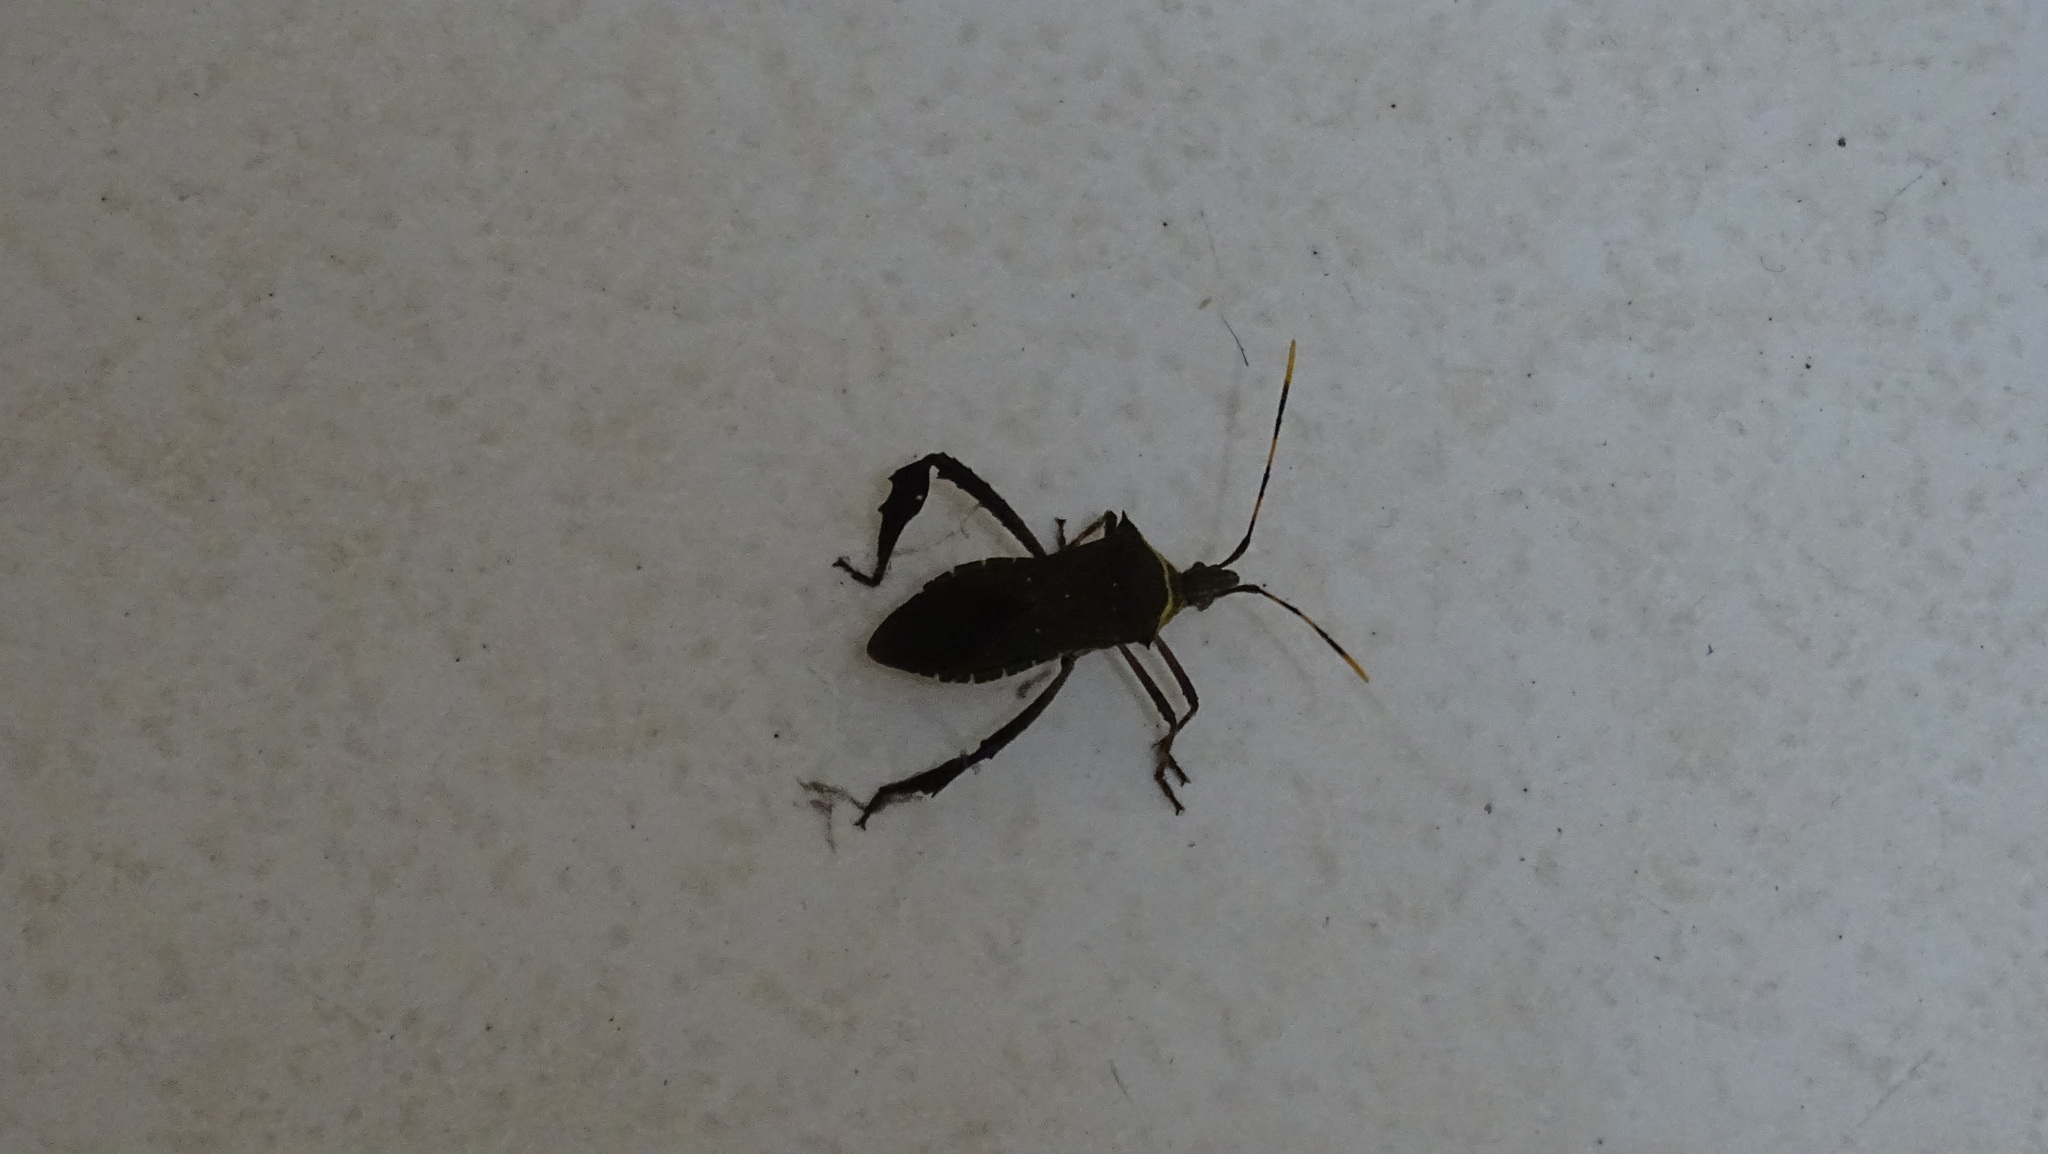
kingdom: Animalia
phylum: Arthropoda
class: Insecta
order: Hemiptera
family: Coreidae
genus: Leptoglossus
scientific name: Leptoglossus gonagra
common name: Citron bug
